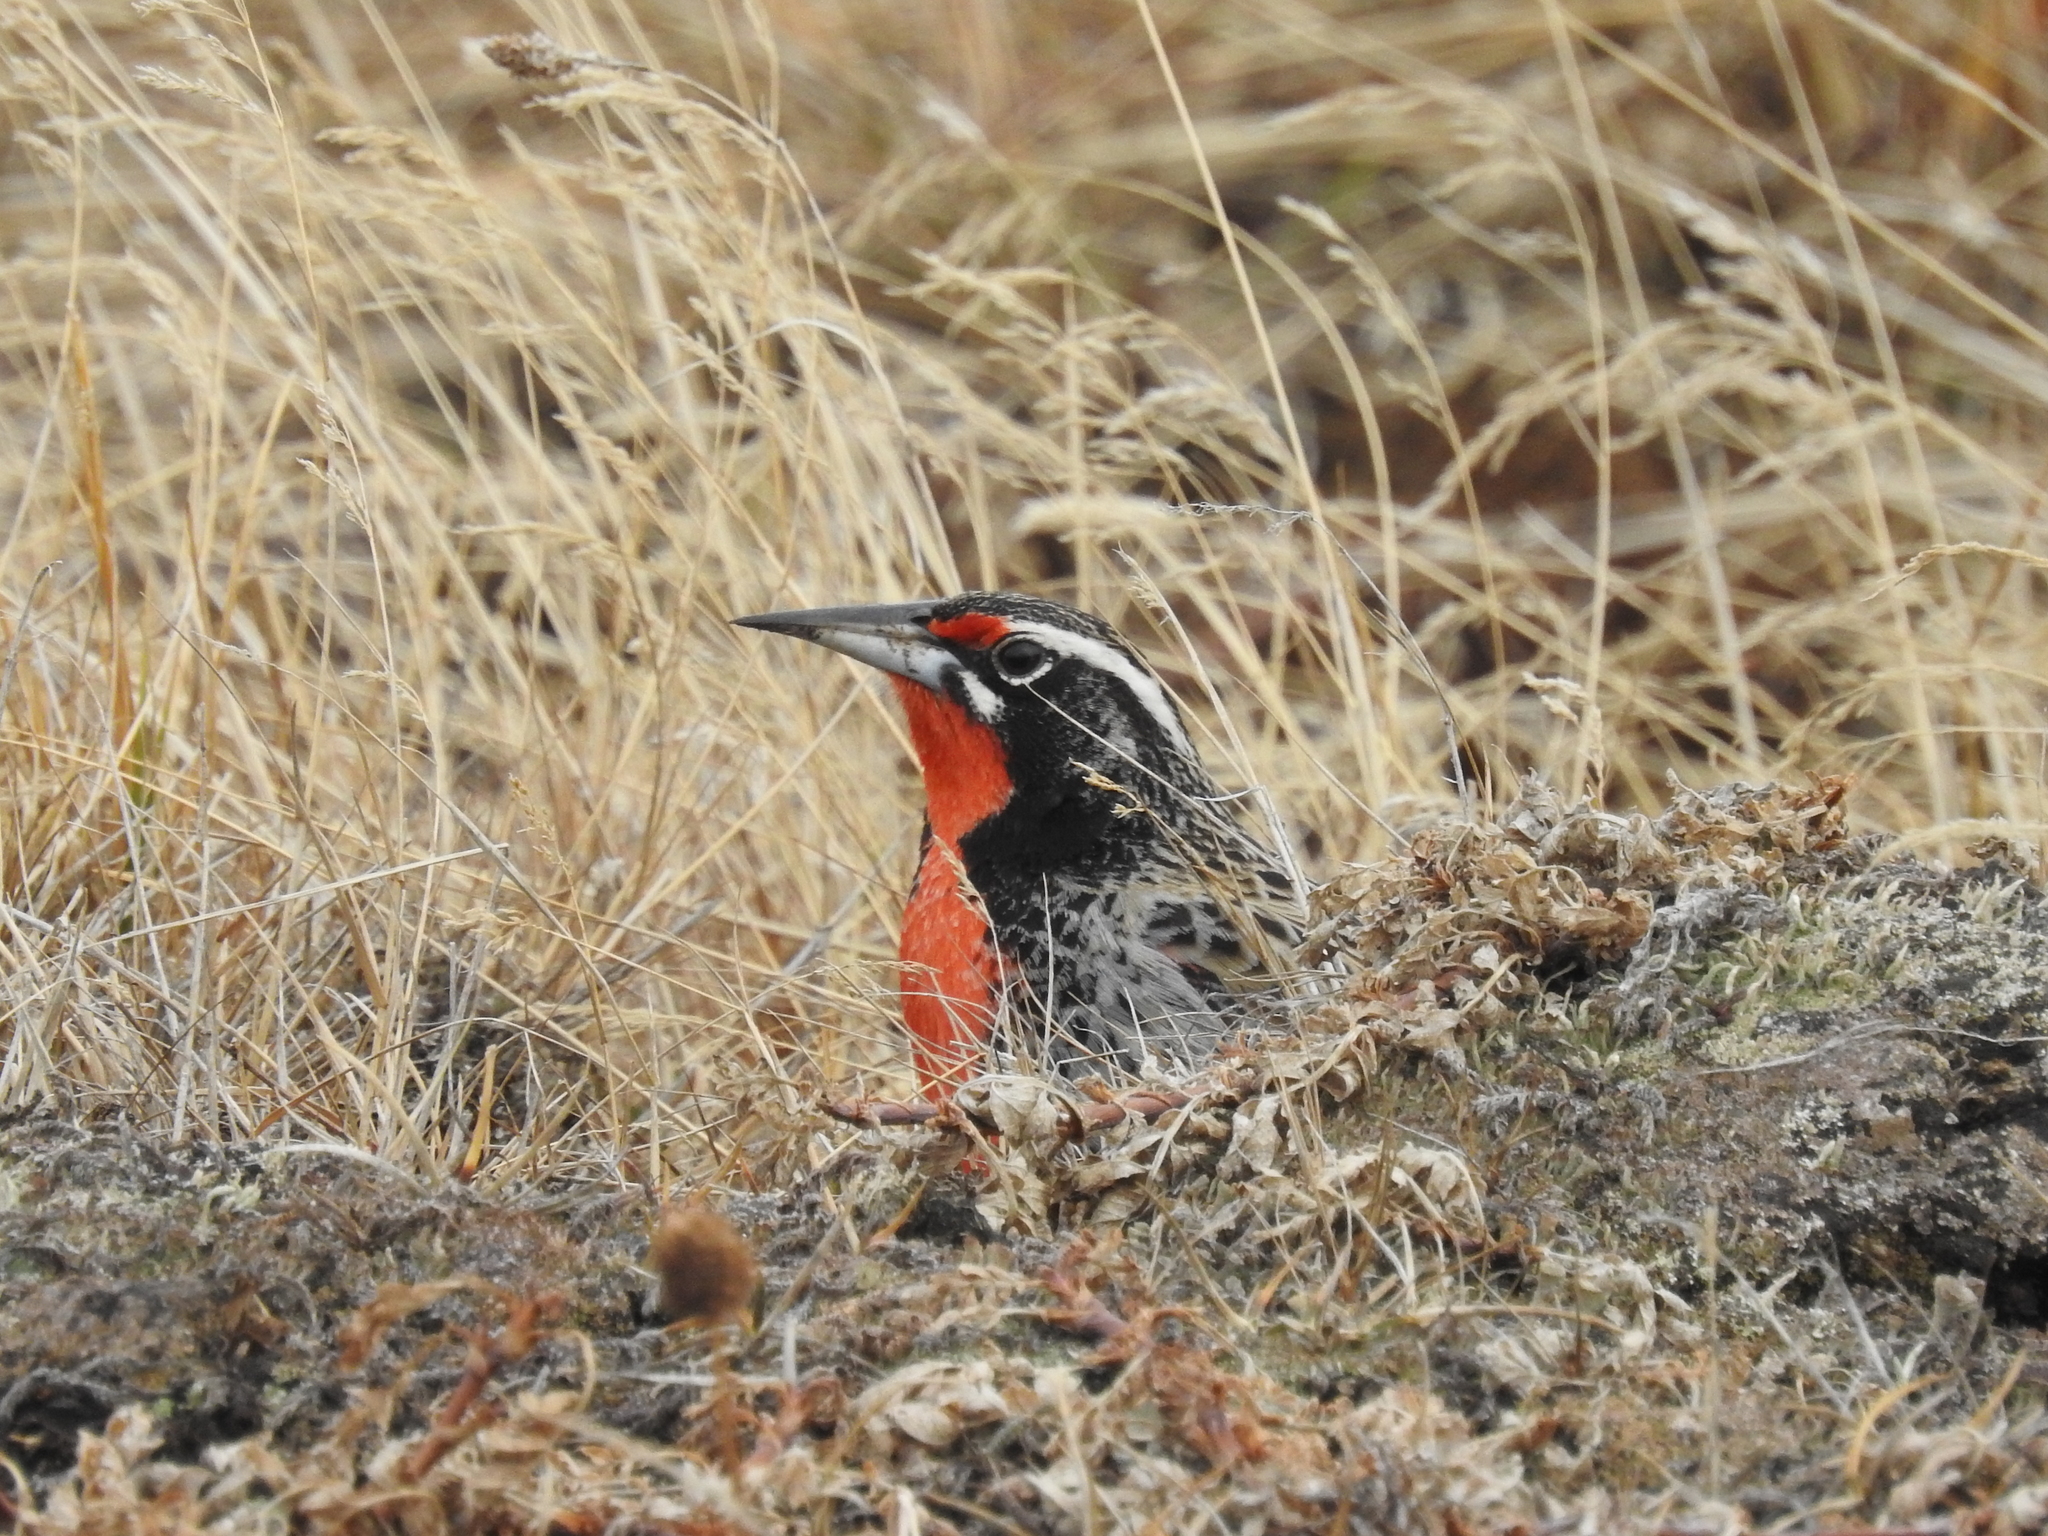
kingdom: Animalia
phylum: Chordata
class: Aves
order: Passeriformes
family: Icteridae
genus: Sturnella
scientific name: Sturnella loyca
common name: Long-tailed meadowlark
